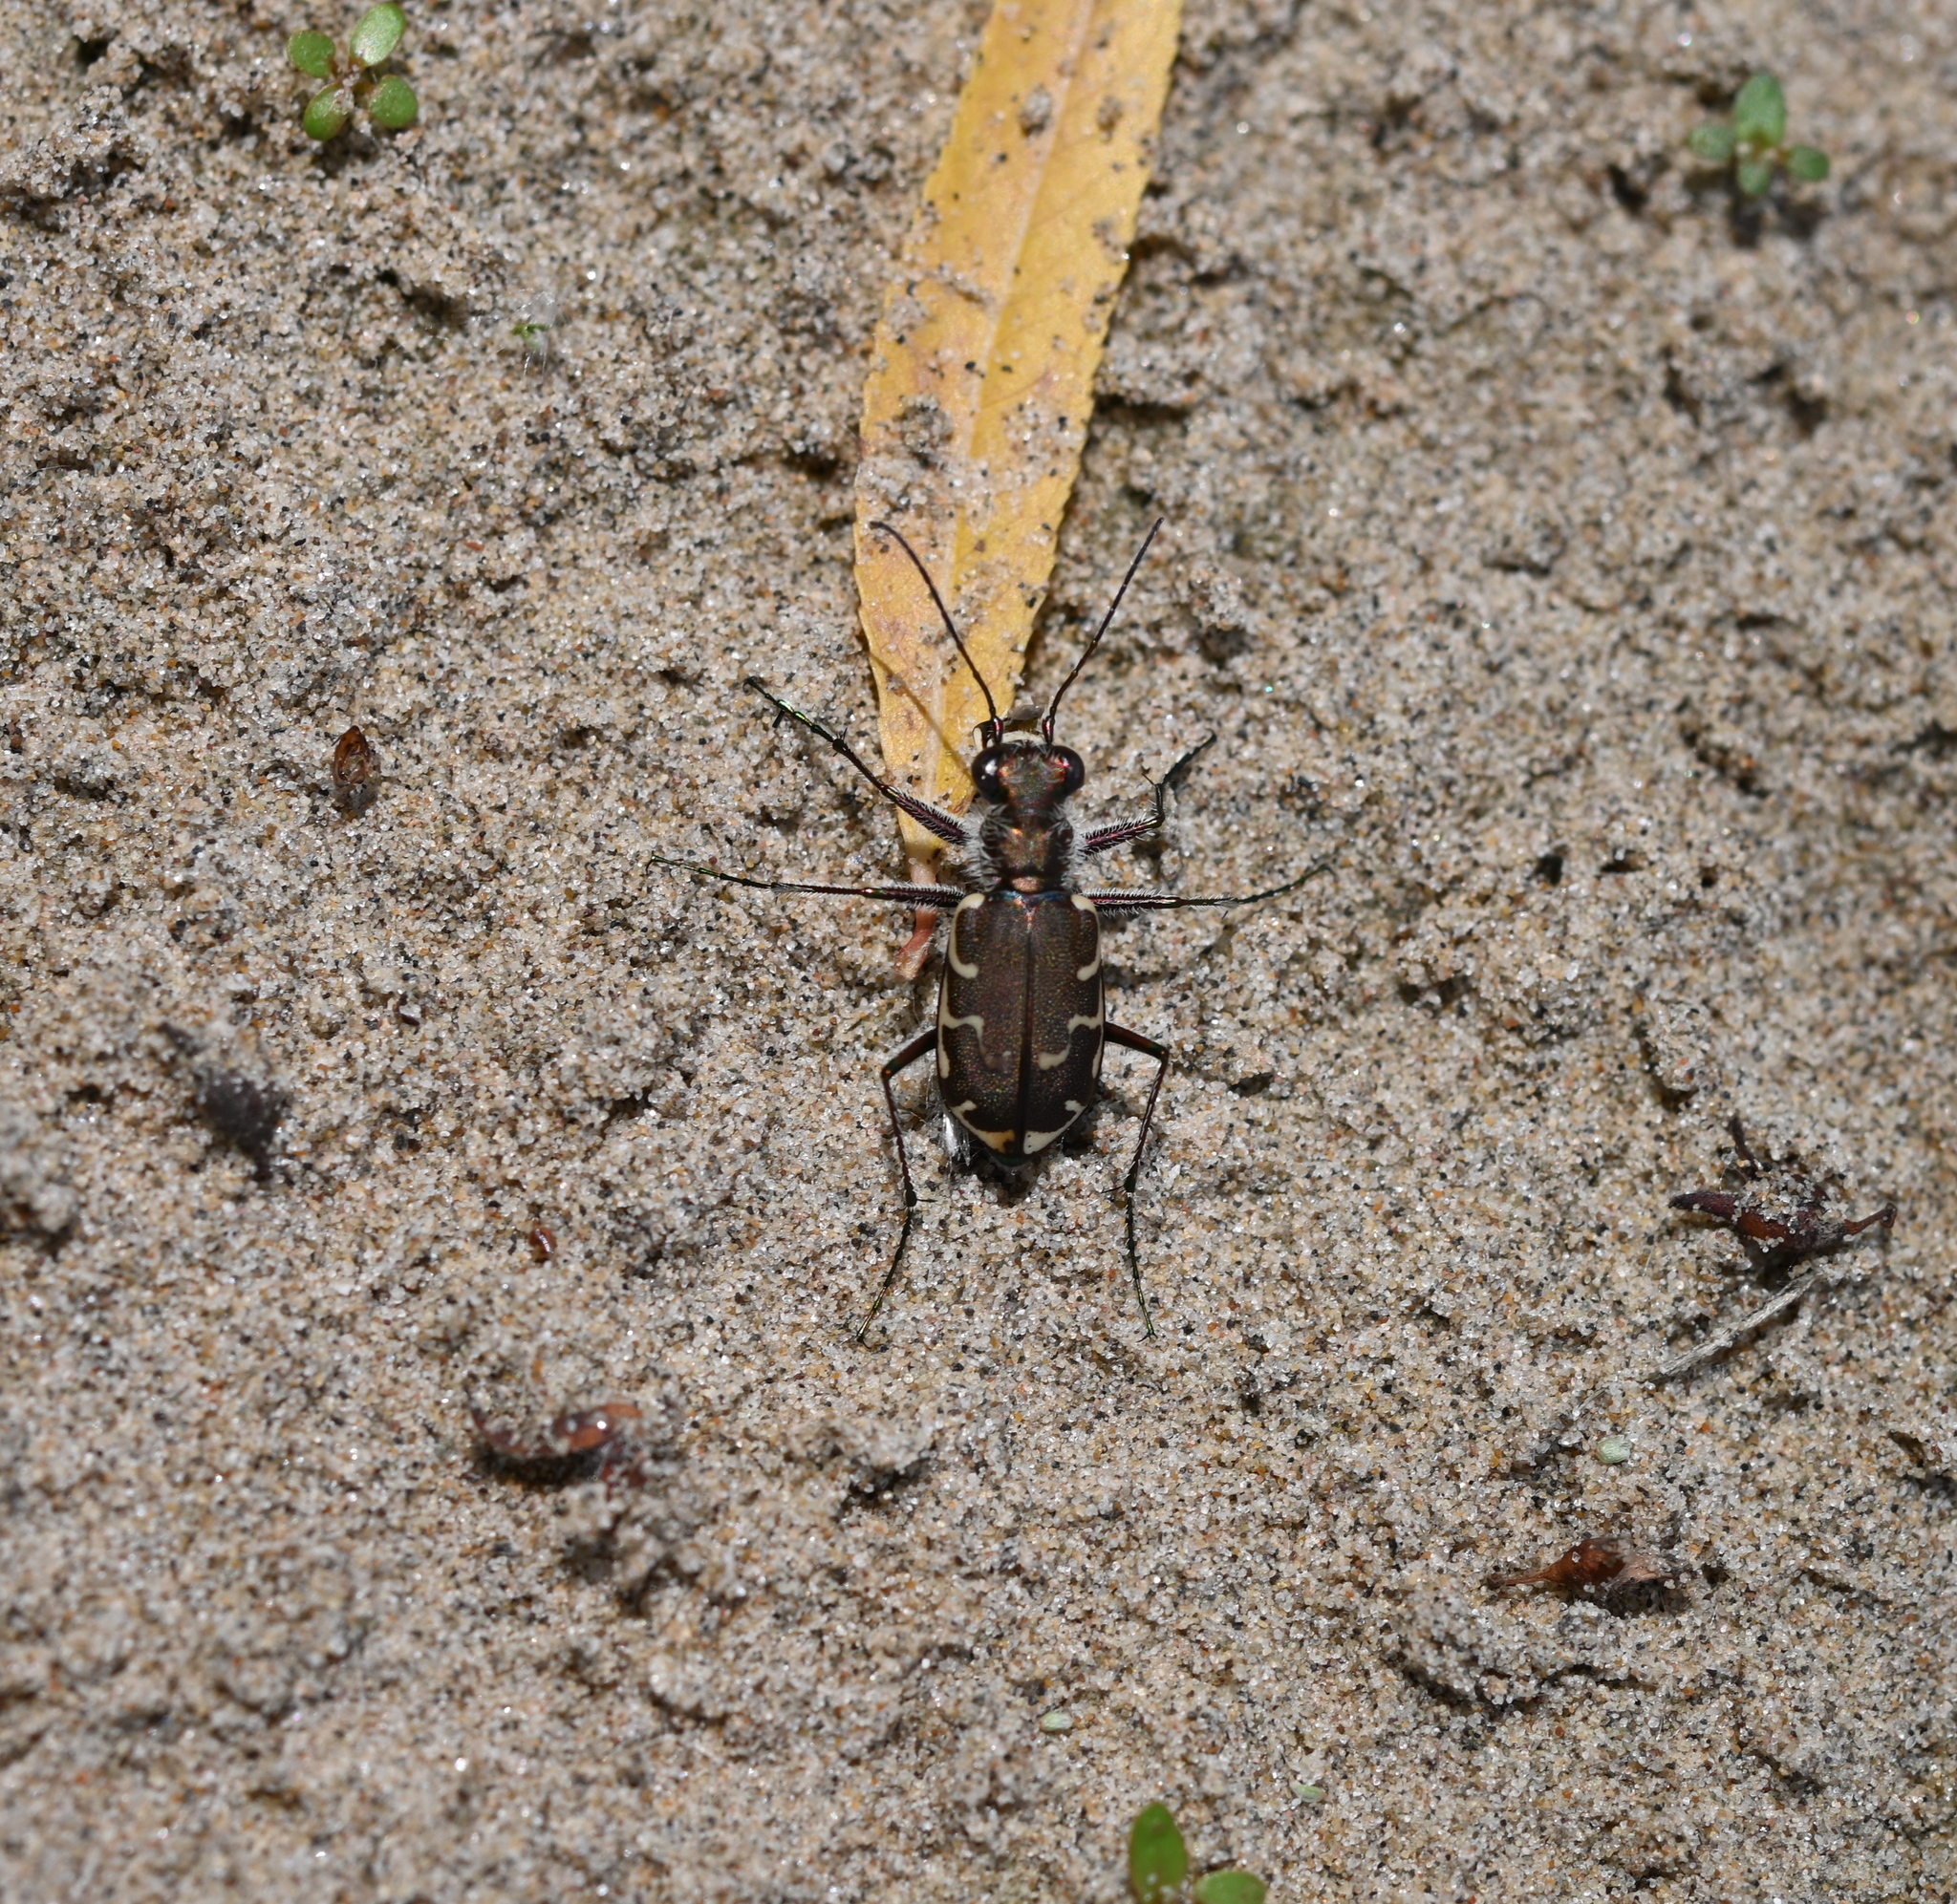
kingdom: Animalia
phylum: Arthropoda
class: Insecta
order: Coleoptera
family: Carabidae
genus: Cicindela
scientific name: Cicindela repanda
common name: Bronzed tiger beetle
